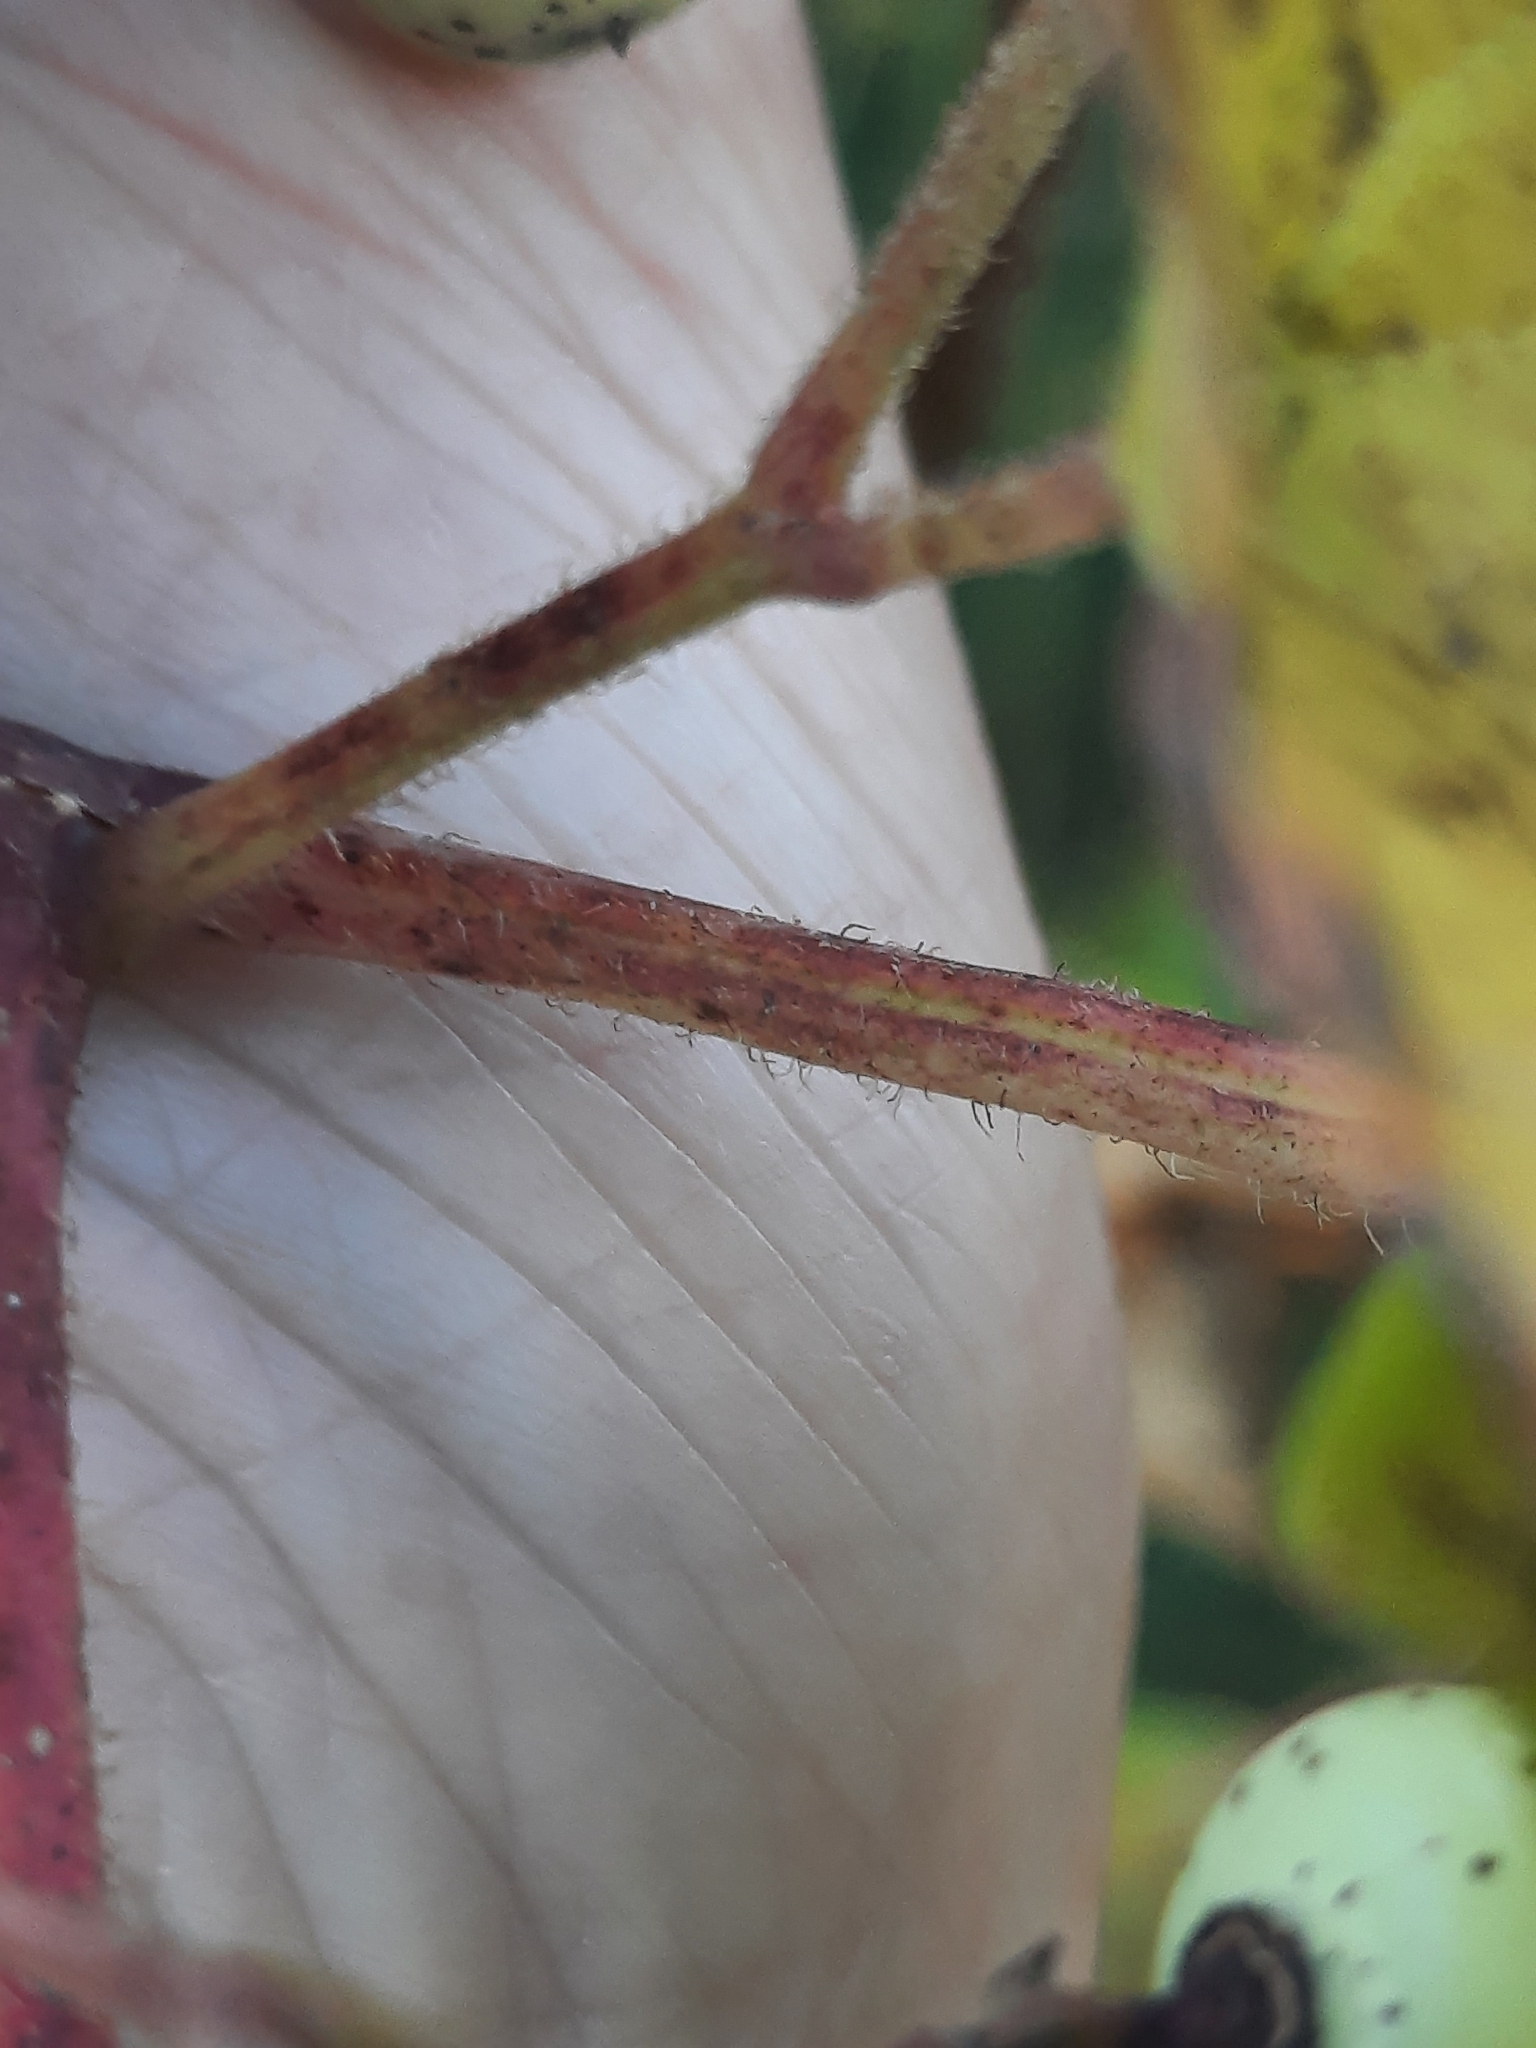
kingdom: Plantae
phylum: Tracheophyta
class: Magnoliopsida
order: Vitales
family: Vitaceae
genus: Ampelopsis
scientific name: Ampelopsis glandulosa
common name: Amur peppervine
